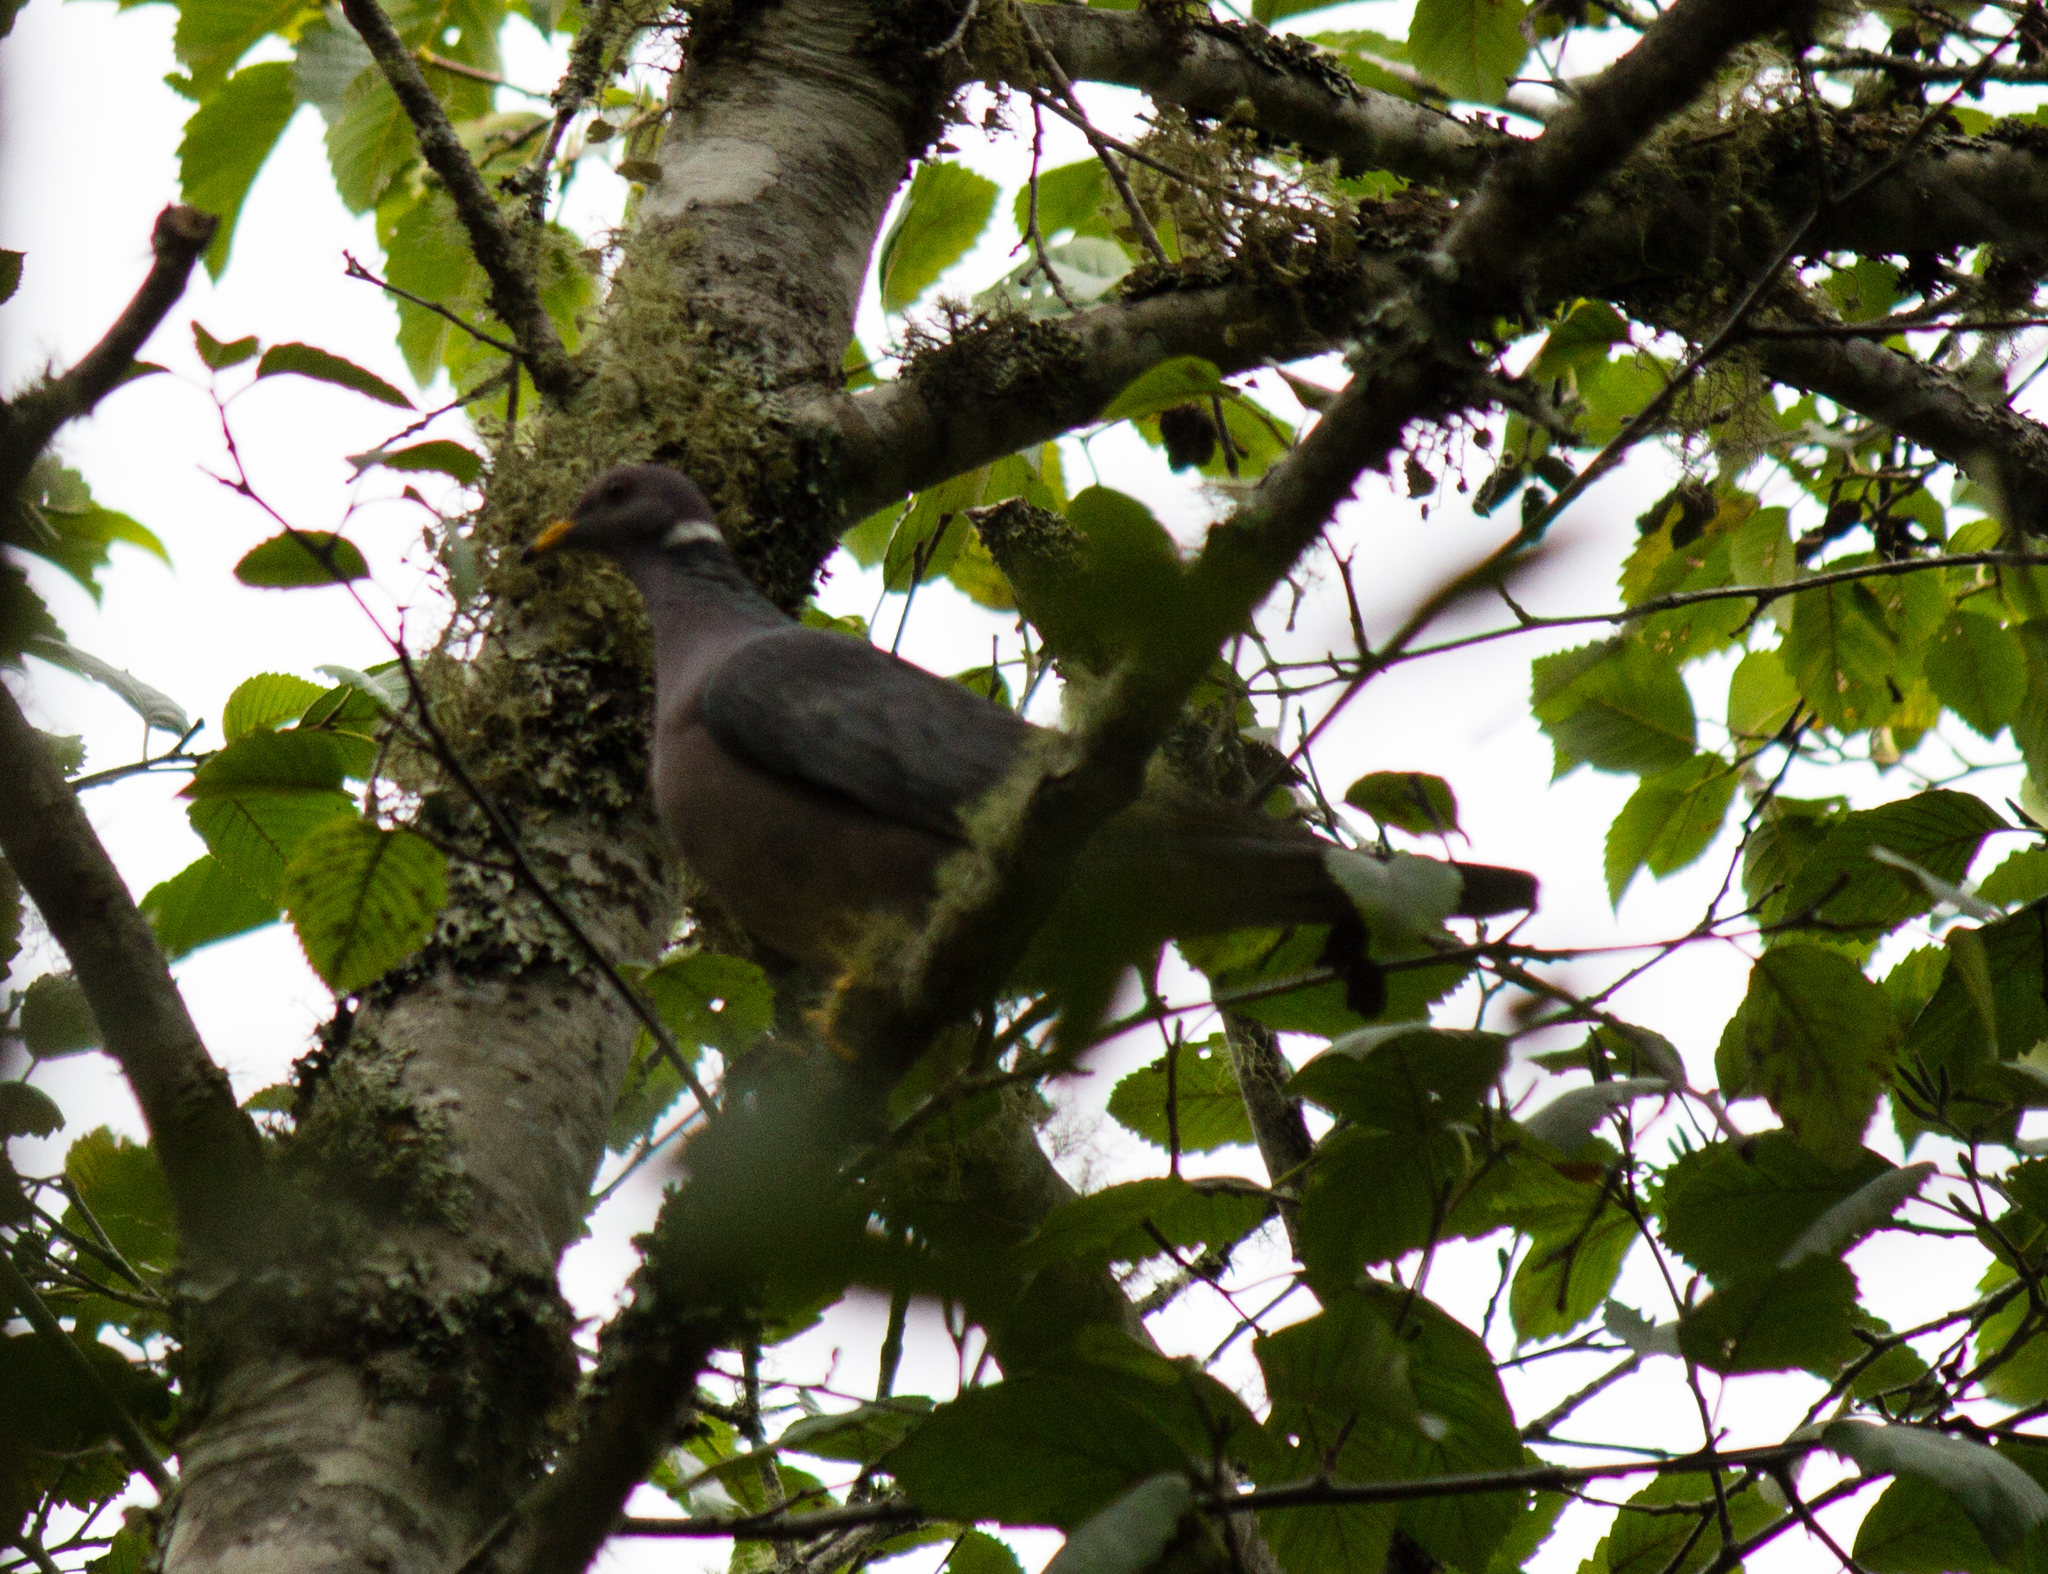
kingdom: Animalia
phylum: Chordata
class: Aves
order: Columbiformes
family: Columbidae
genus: Patagioenas
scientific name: Patagioenas fasciata
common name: Band-tailed pigeon
